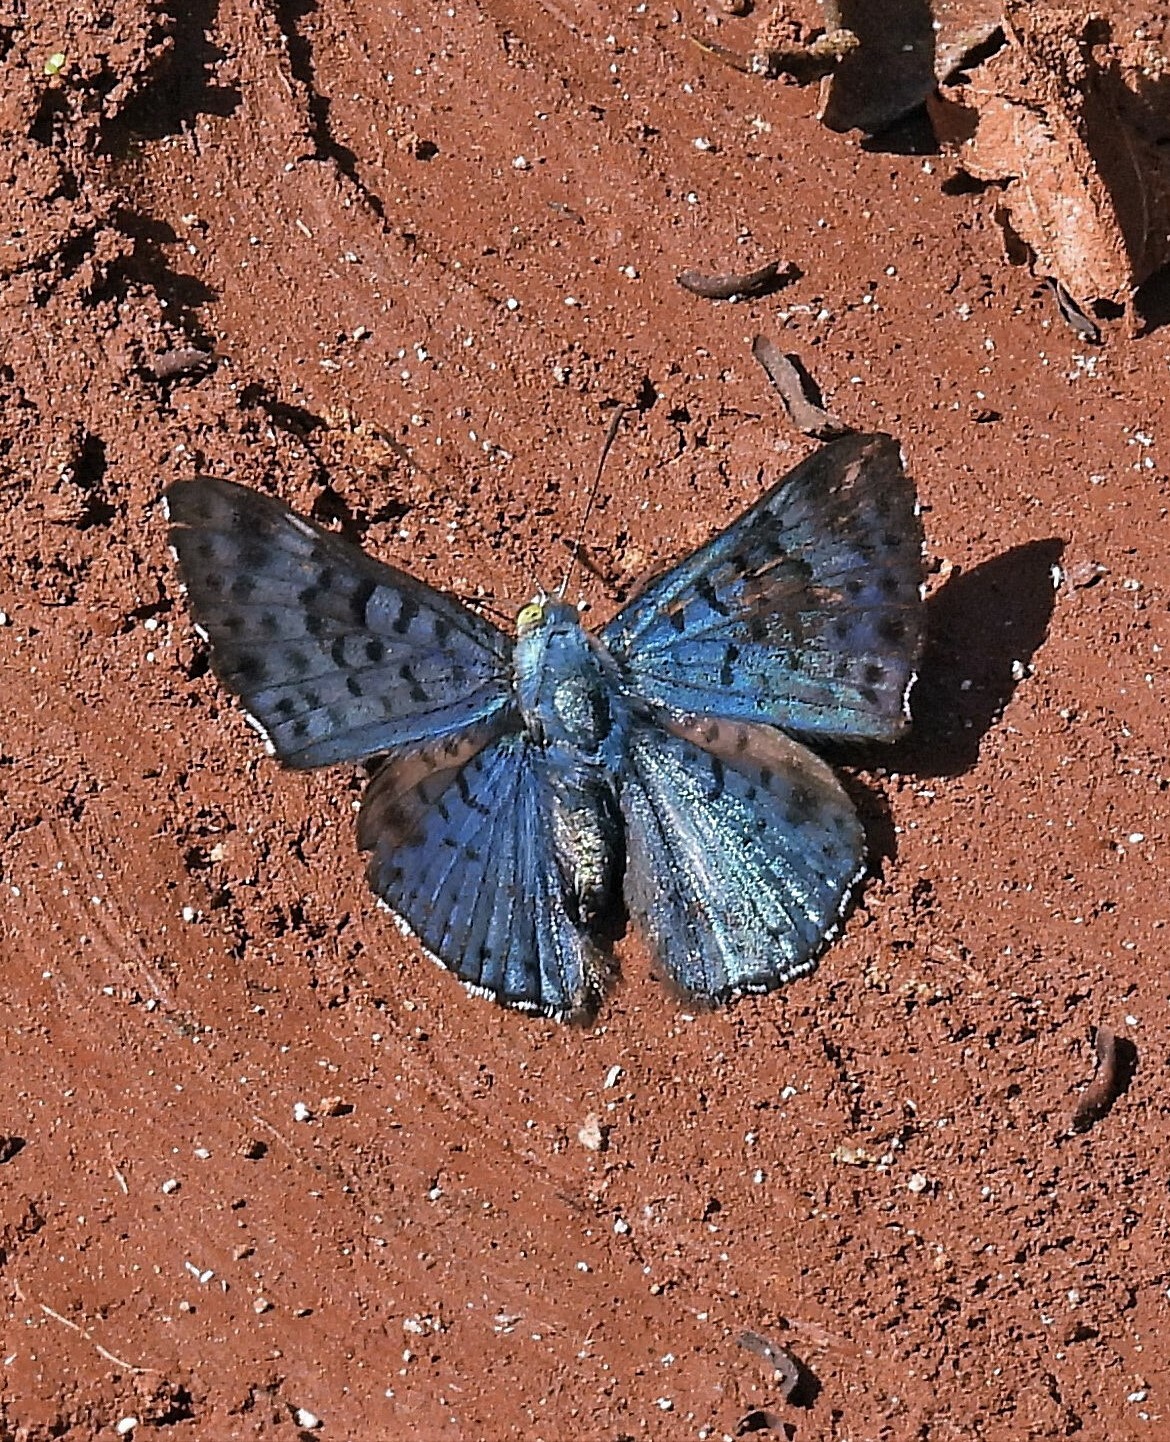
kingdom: Animalia
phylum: Arthropoda
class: Insecta
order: Lepidoptera
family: Riodinidae
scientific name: Riodinidae
